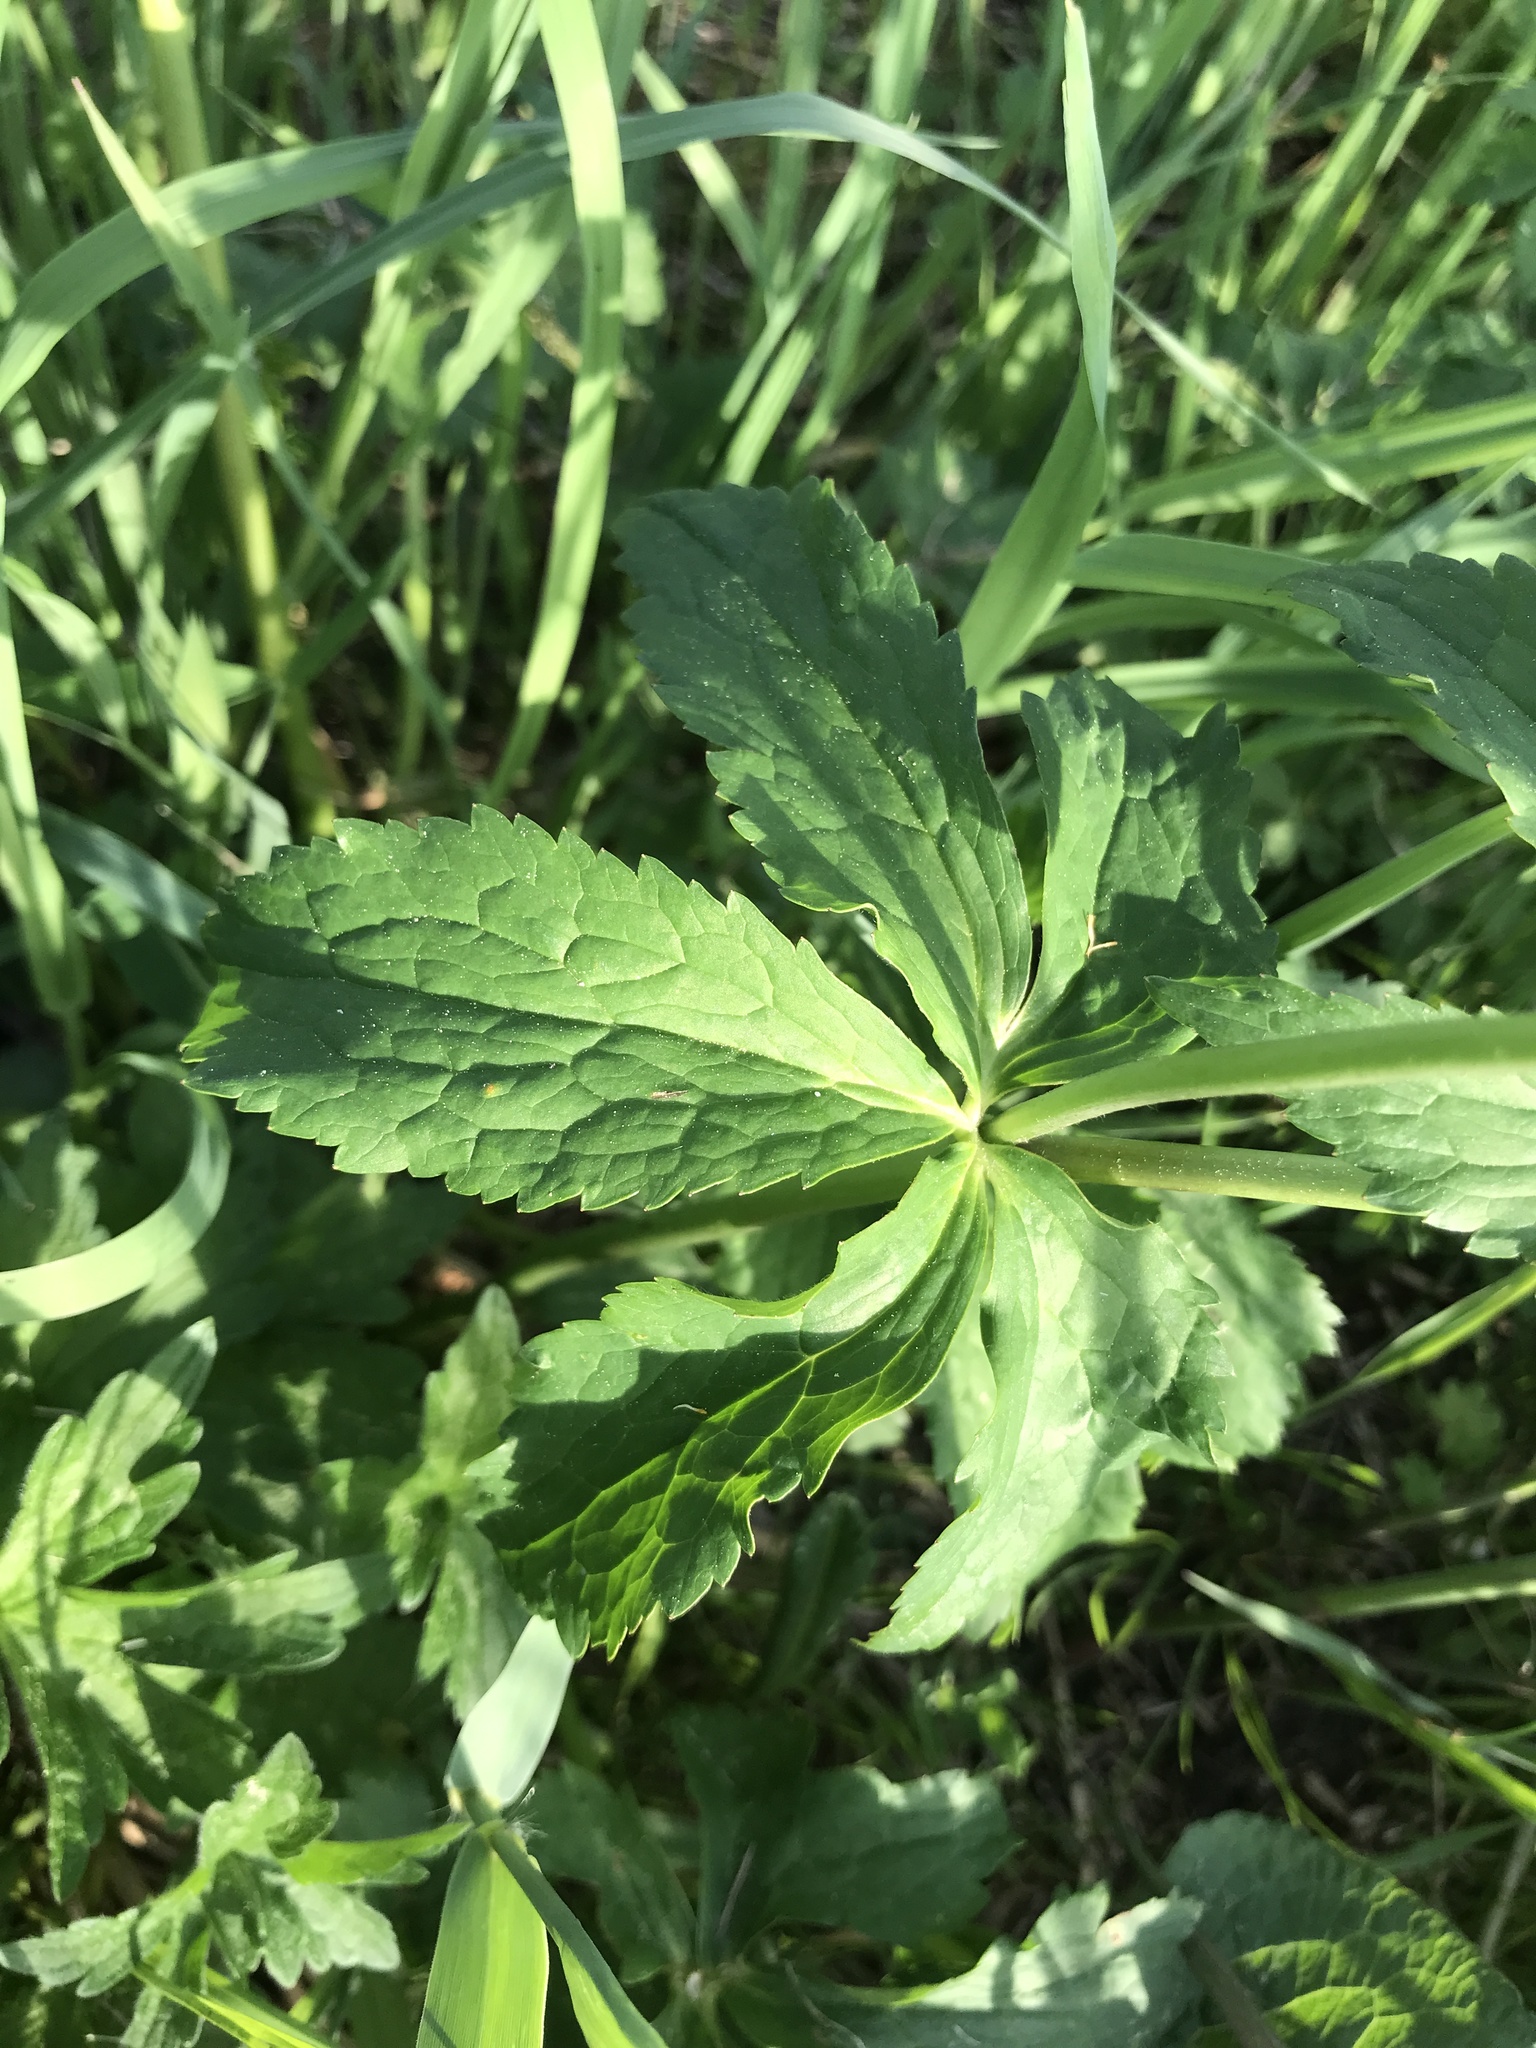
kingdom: Plantae
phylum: Tracheophyta
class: Magnoliopsida
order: Ranunculales
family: Ranunculaceae
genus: Ranunculus
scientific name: Ranunculus aconitifolius
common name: Aconite-leaved buttercup
